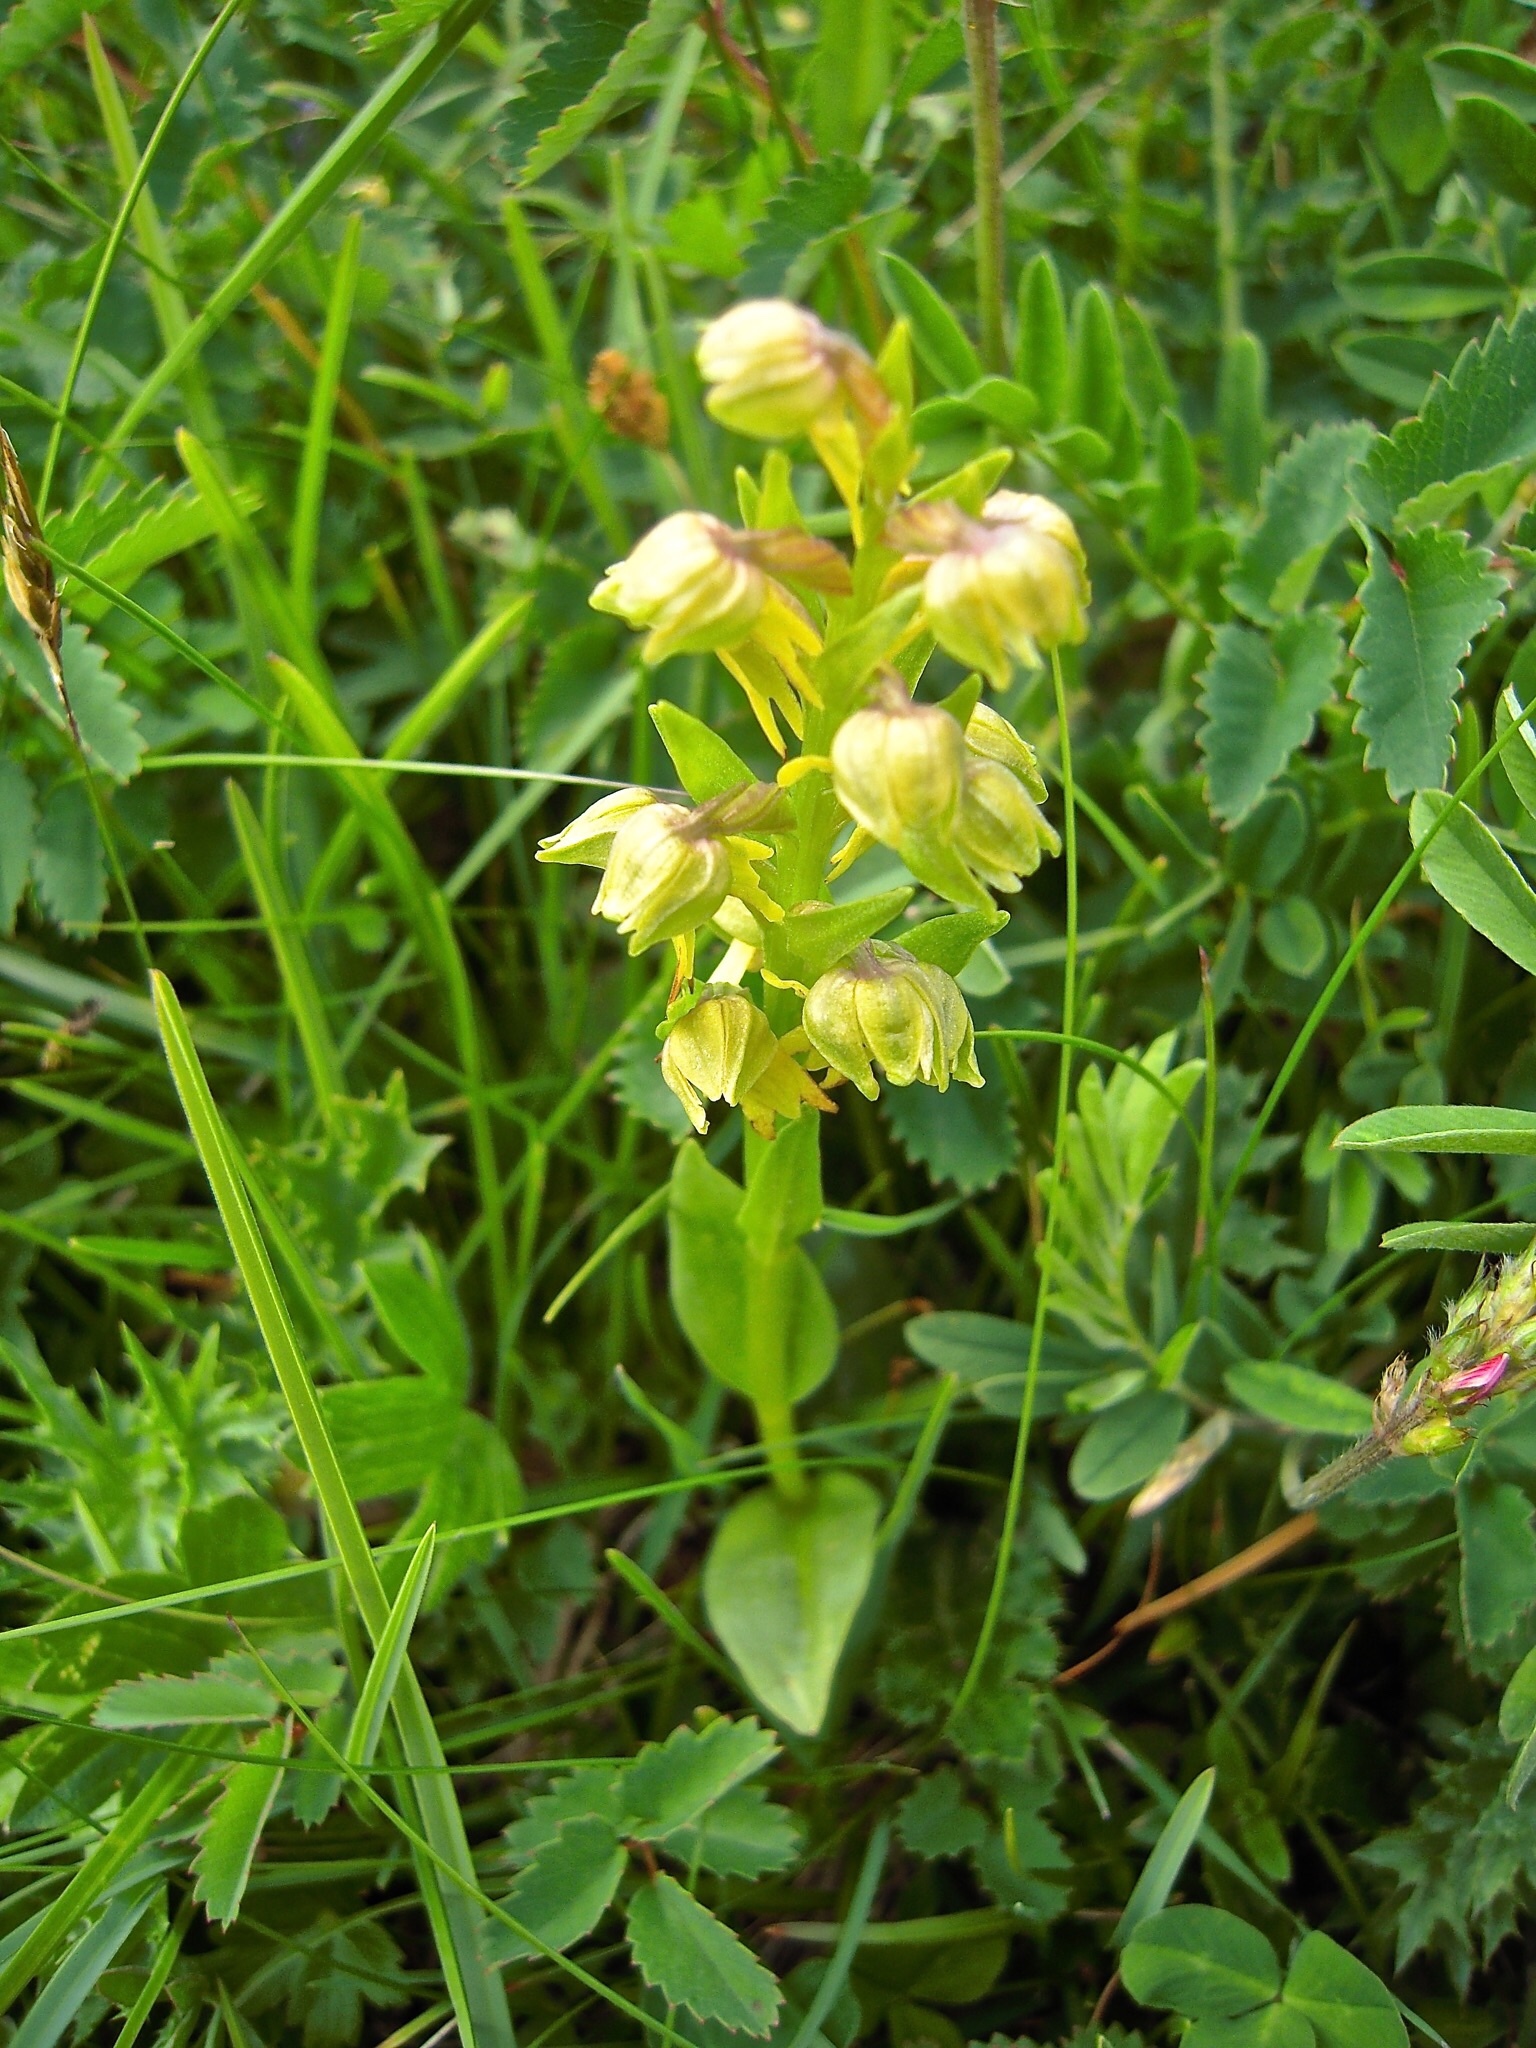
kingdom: Plantae
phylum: Tracheophyta
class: Liliopsida
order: Asparagales
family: Orchidaceae
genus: Dactylorhiza
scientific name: Dactylorhiza viridis
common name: Longbract frog orchid
